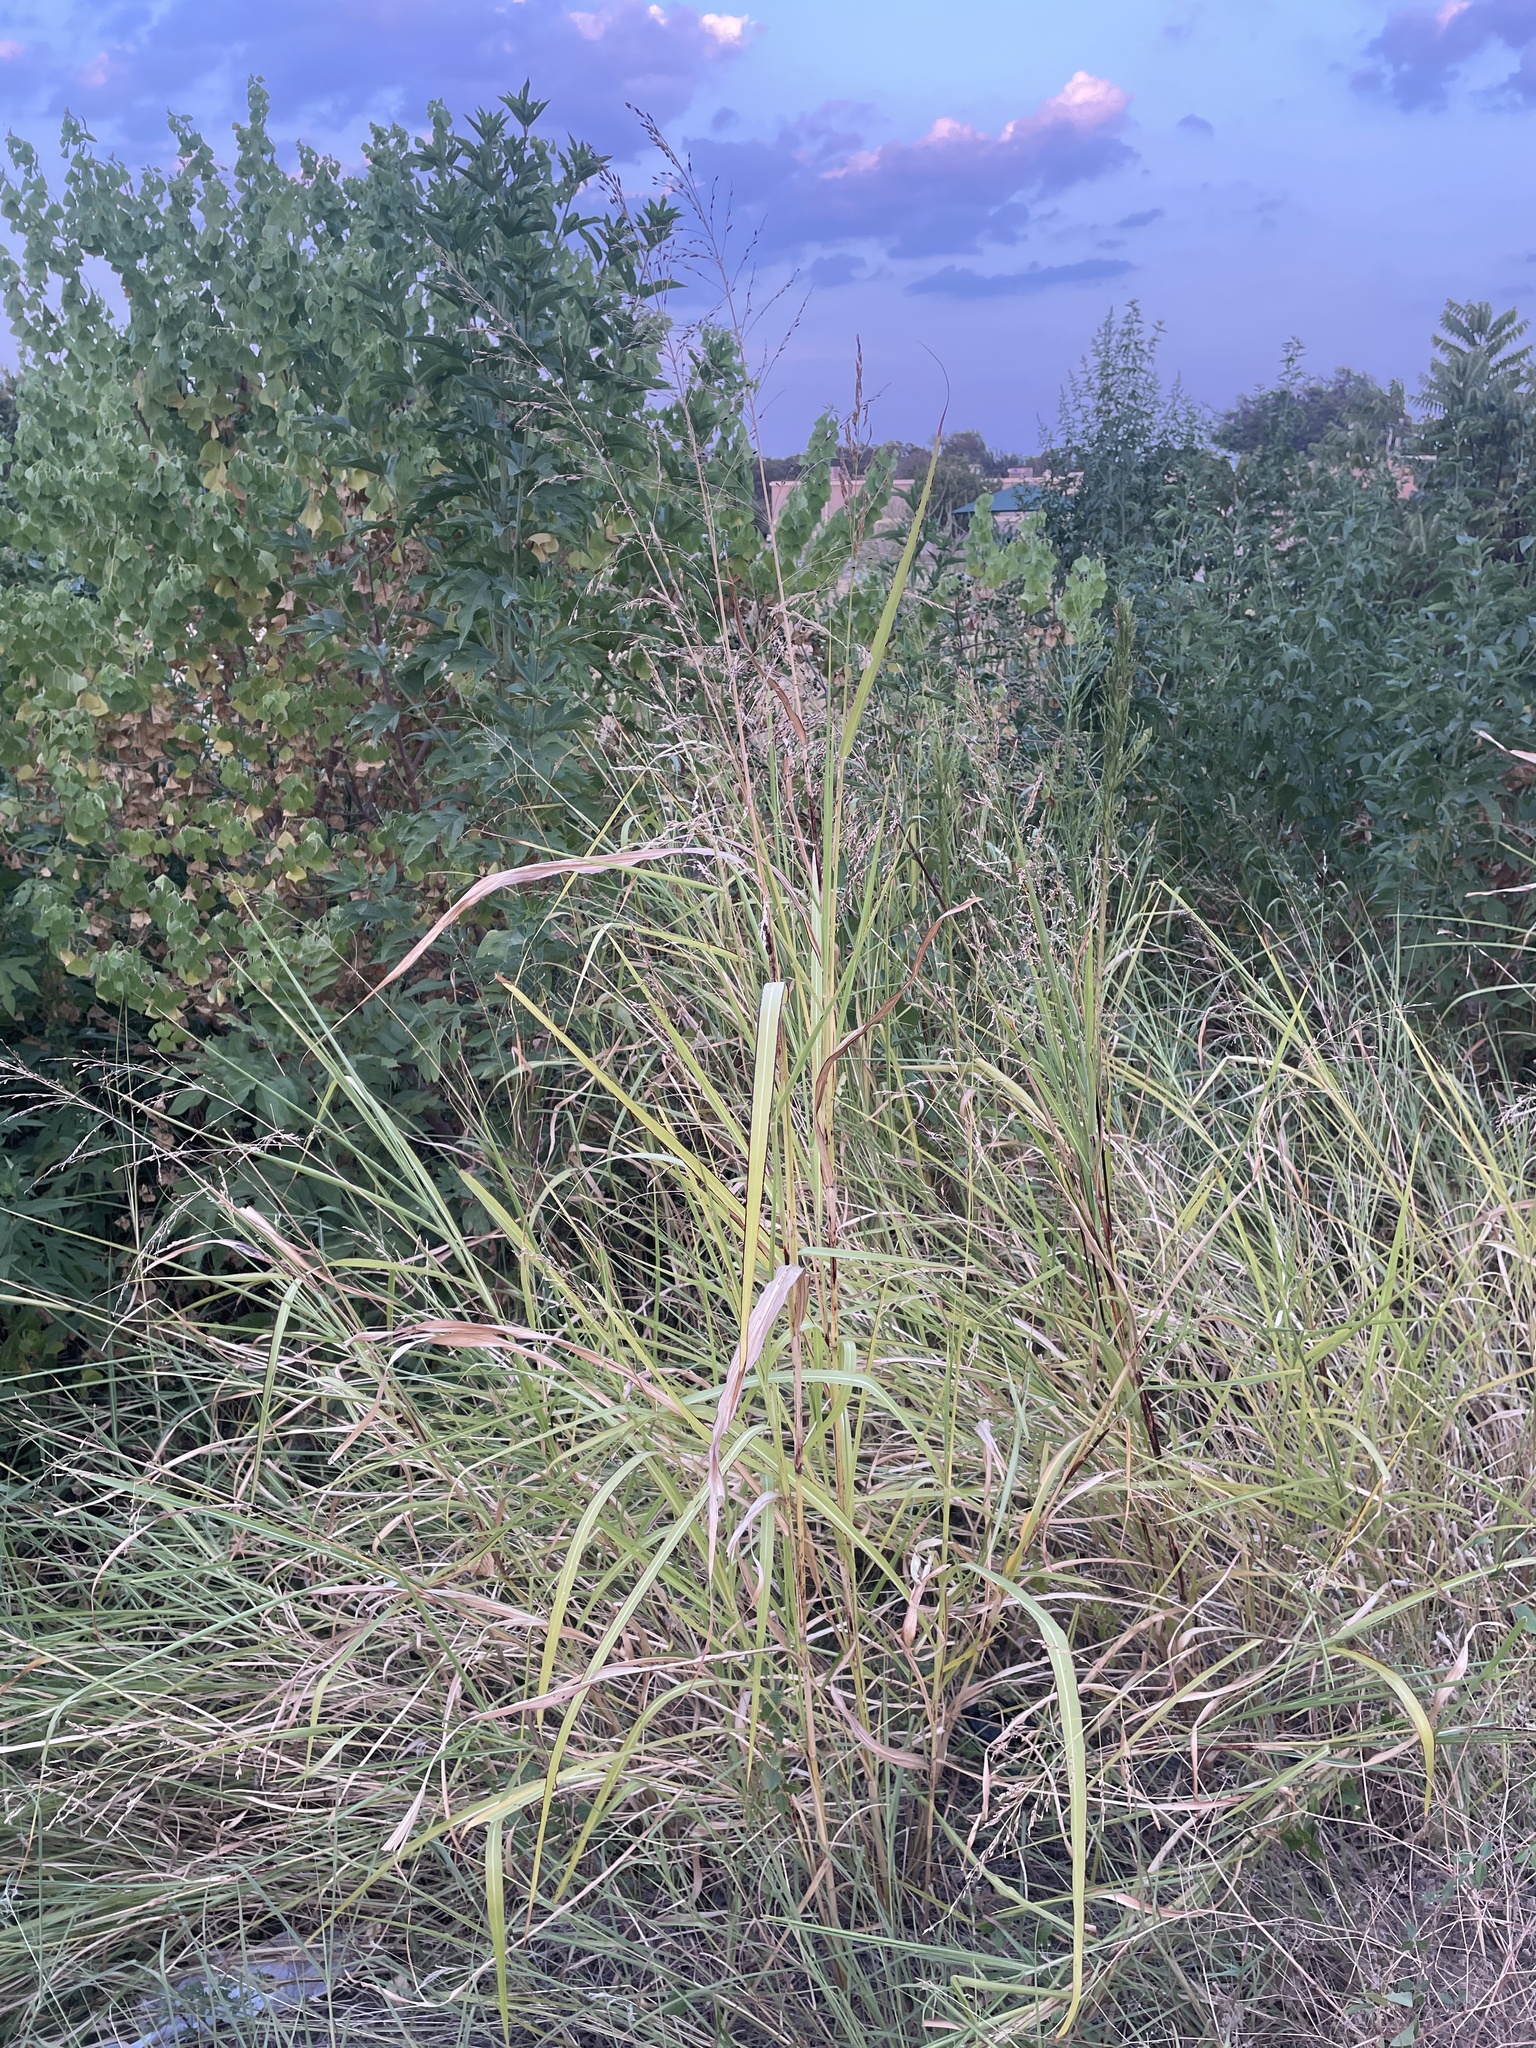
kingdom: Plantae
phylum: Tracheophyta
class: Liliopsida
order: Poales
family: Poaceae
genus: Sorghum
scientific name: Sorghum halepense
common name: Johnson-grass
